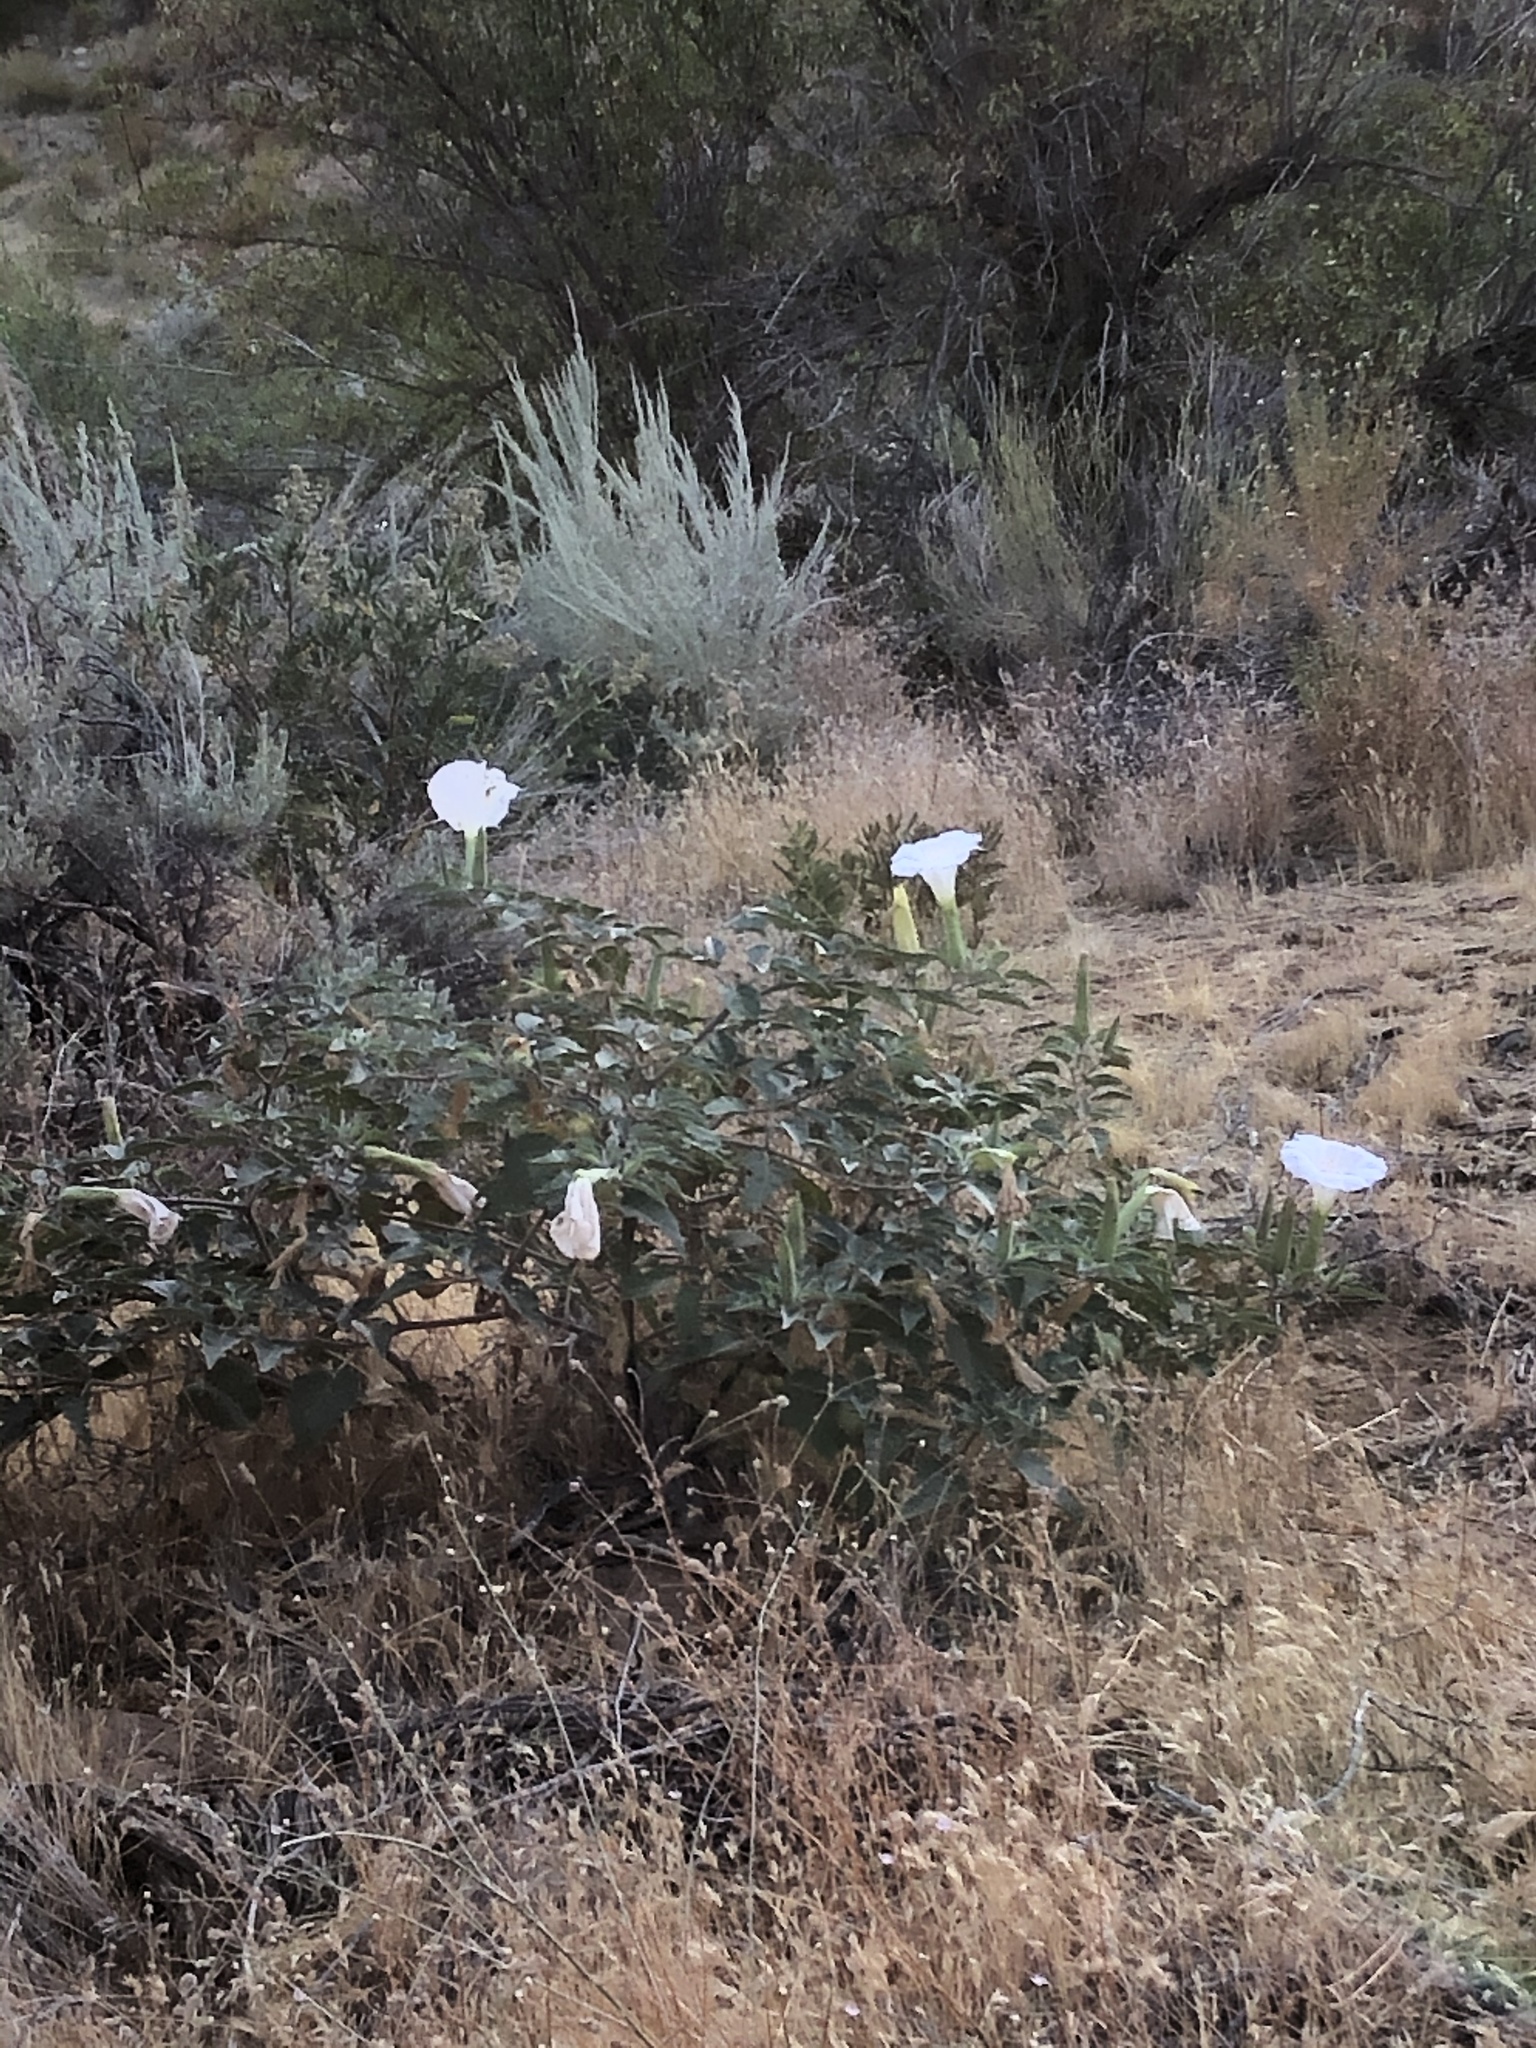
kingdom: Plantae
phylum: Tracheophyta
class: Magnoliopsida
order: Solanales
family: Solanaceae
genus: Datura
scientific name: Datura wrightii
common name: Sacred thorn-apple
